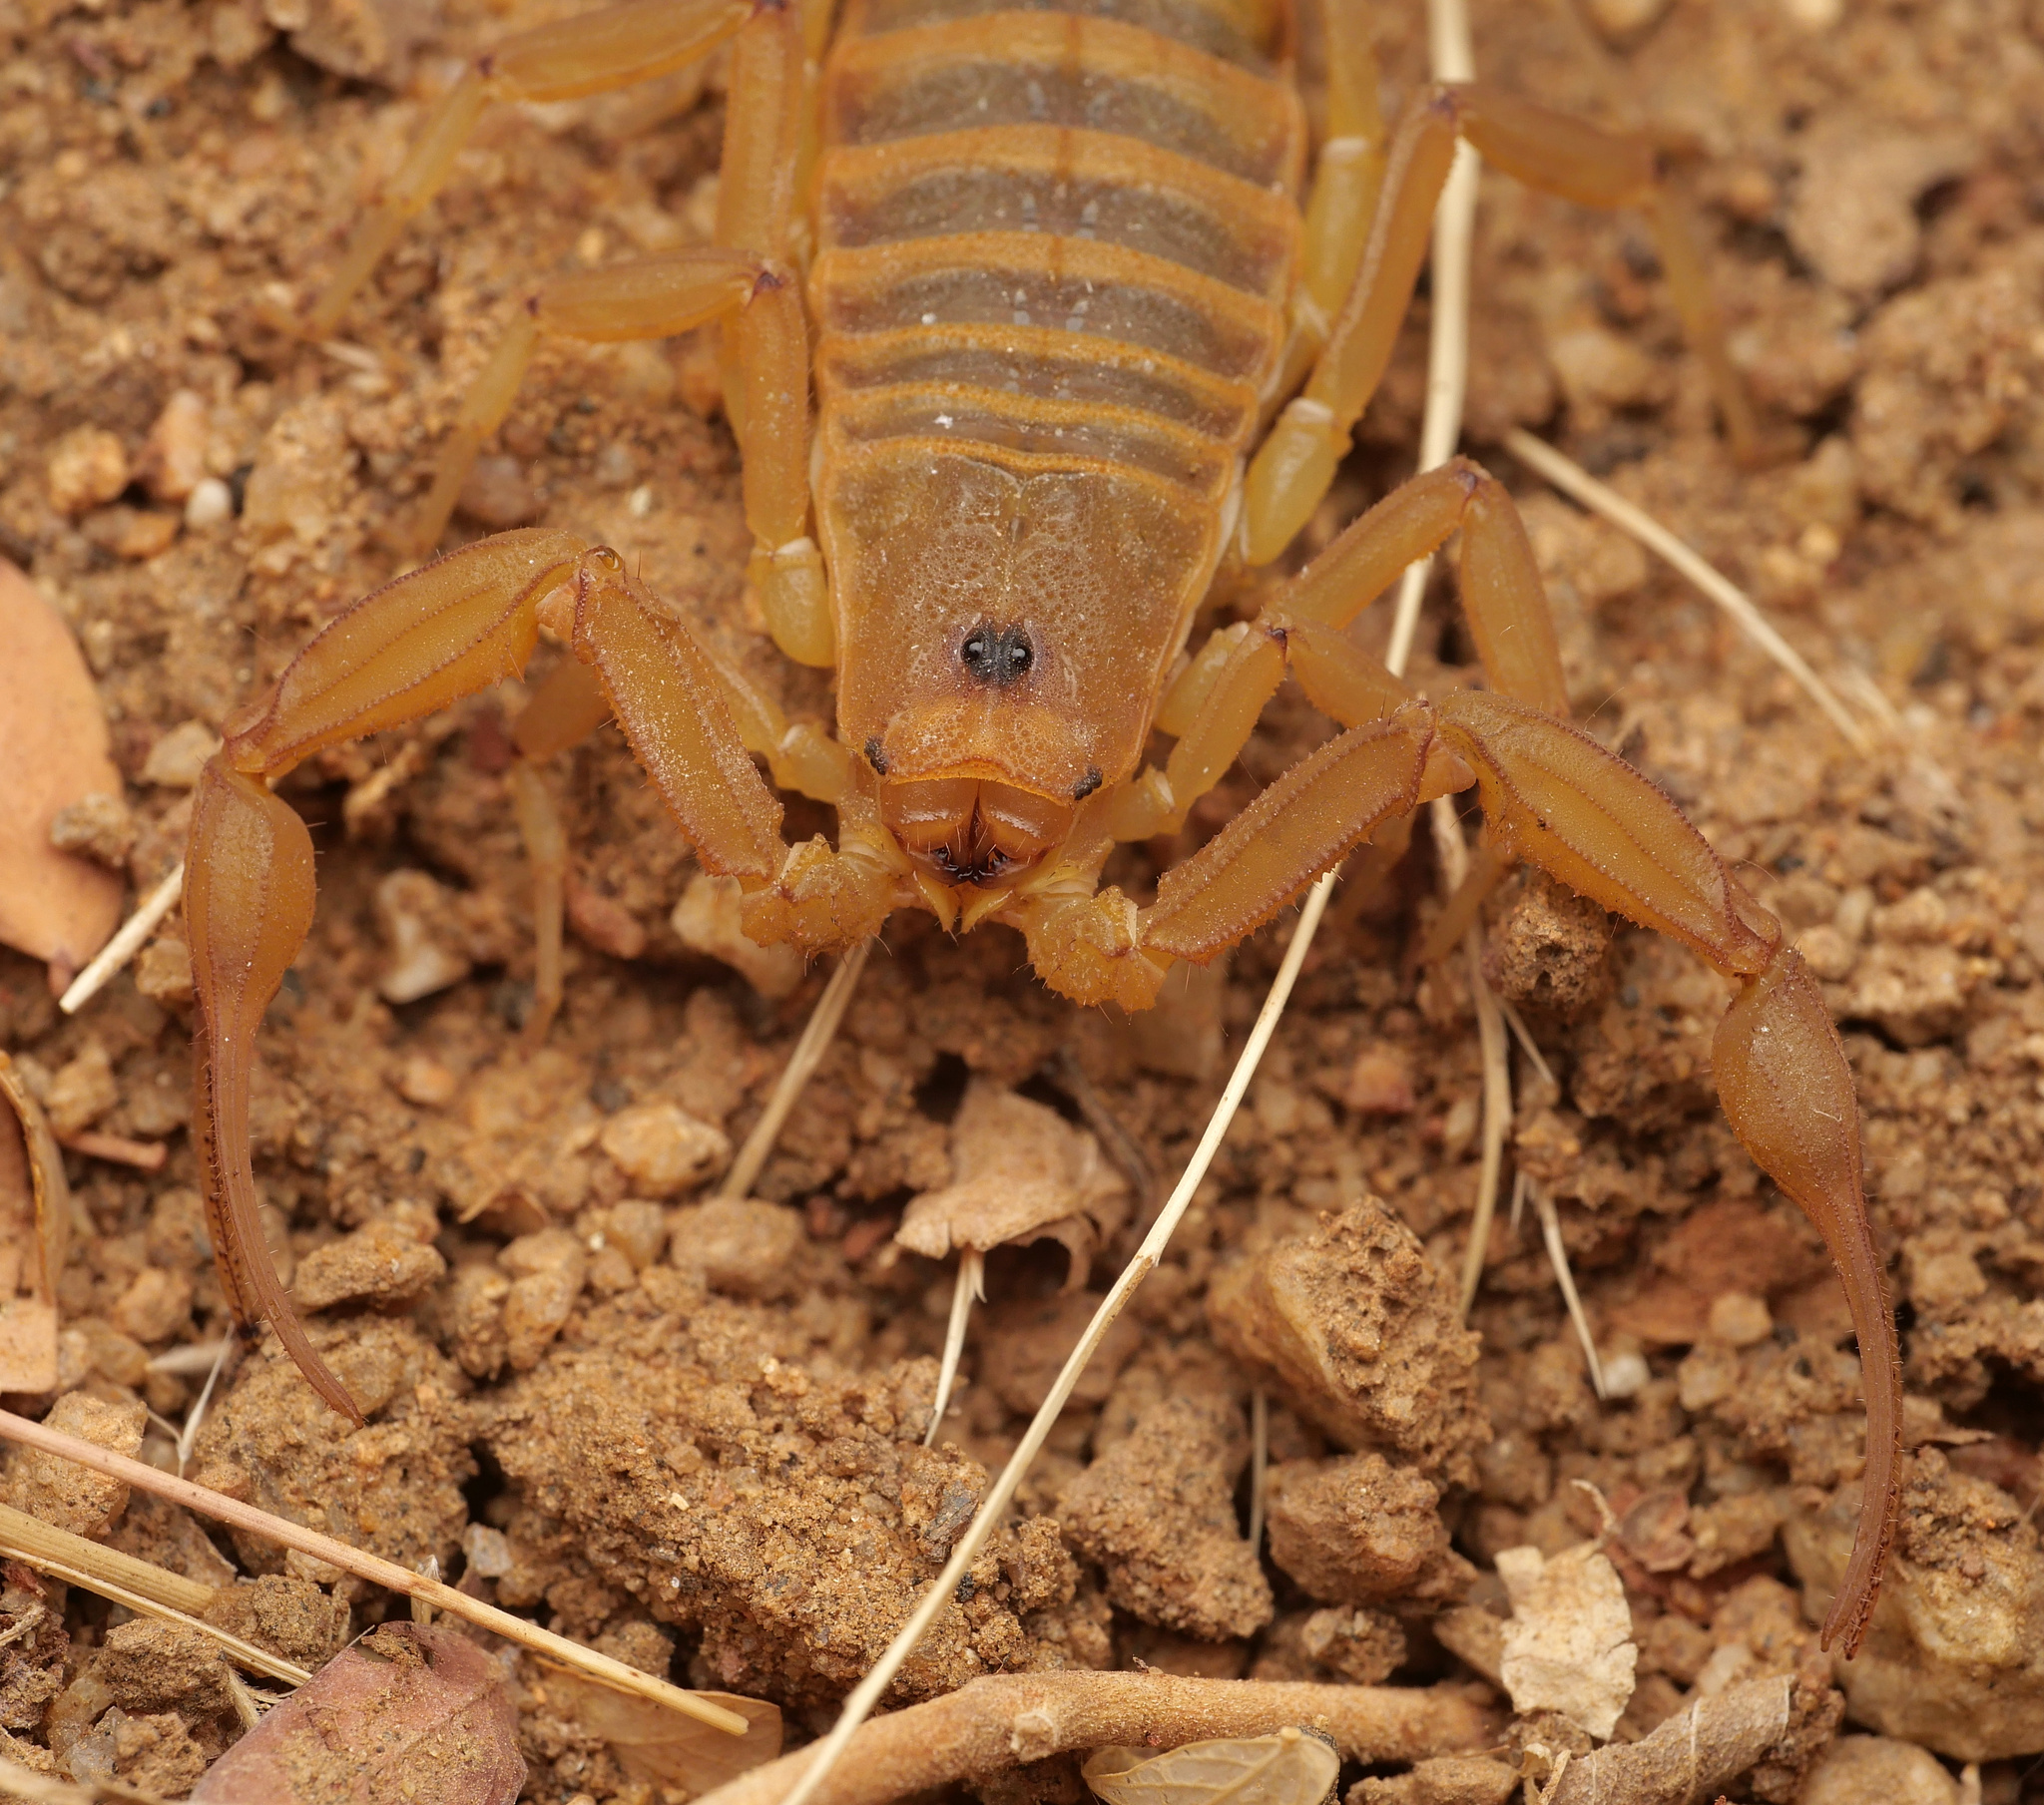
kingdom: Animalia
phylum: Arthropoda
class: Arachnida
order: Scorpiones
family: Buthidae
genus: Centruroides
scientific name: Centruroides exilicauda
